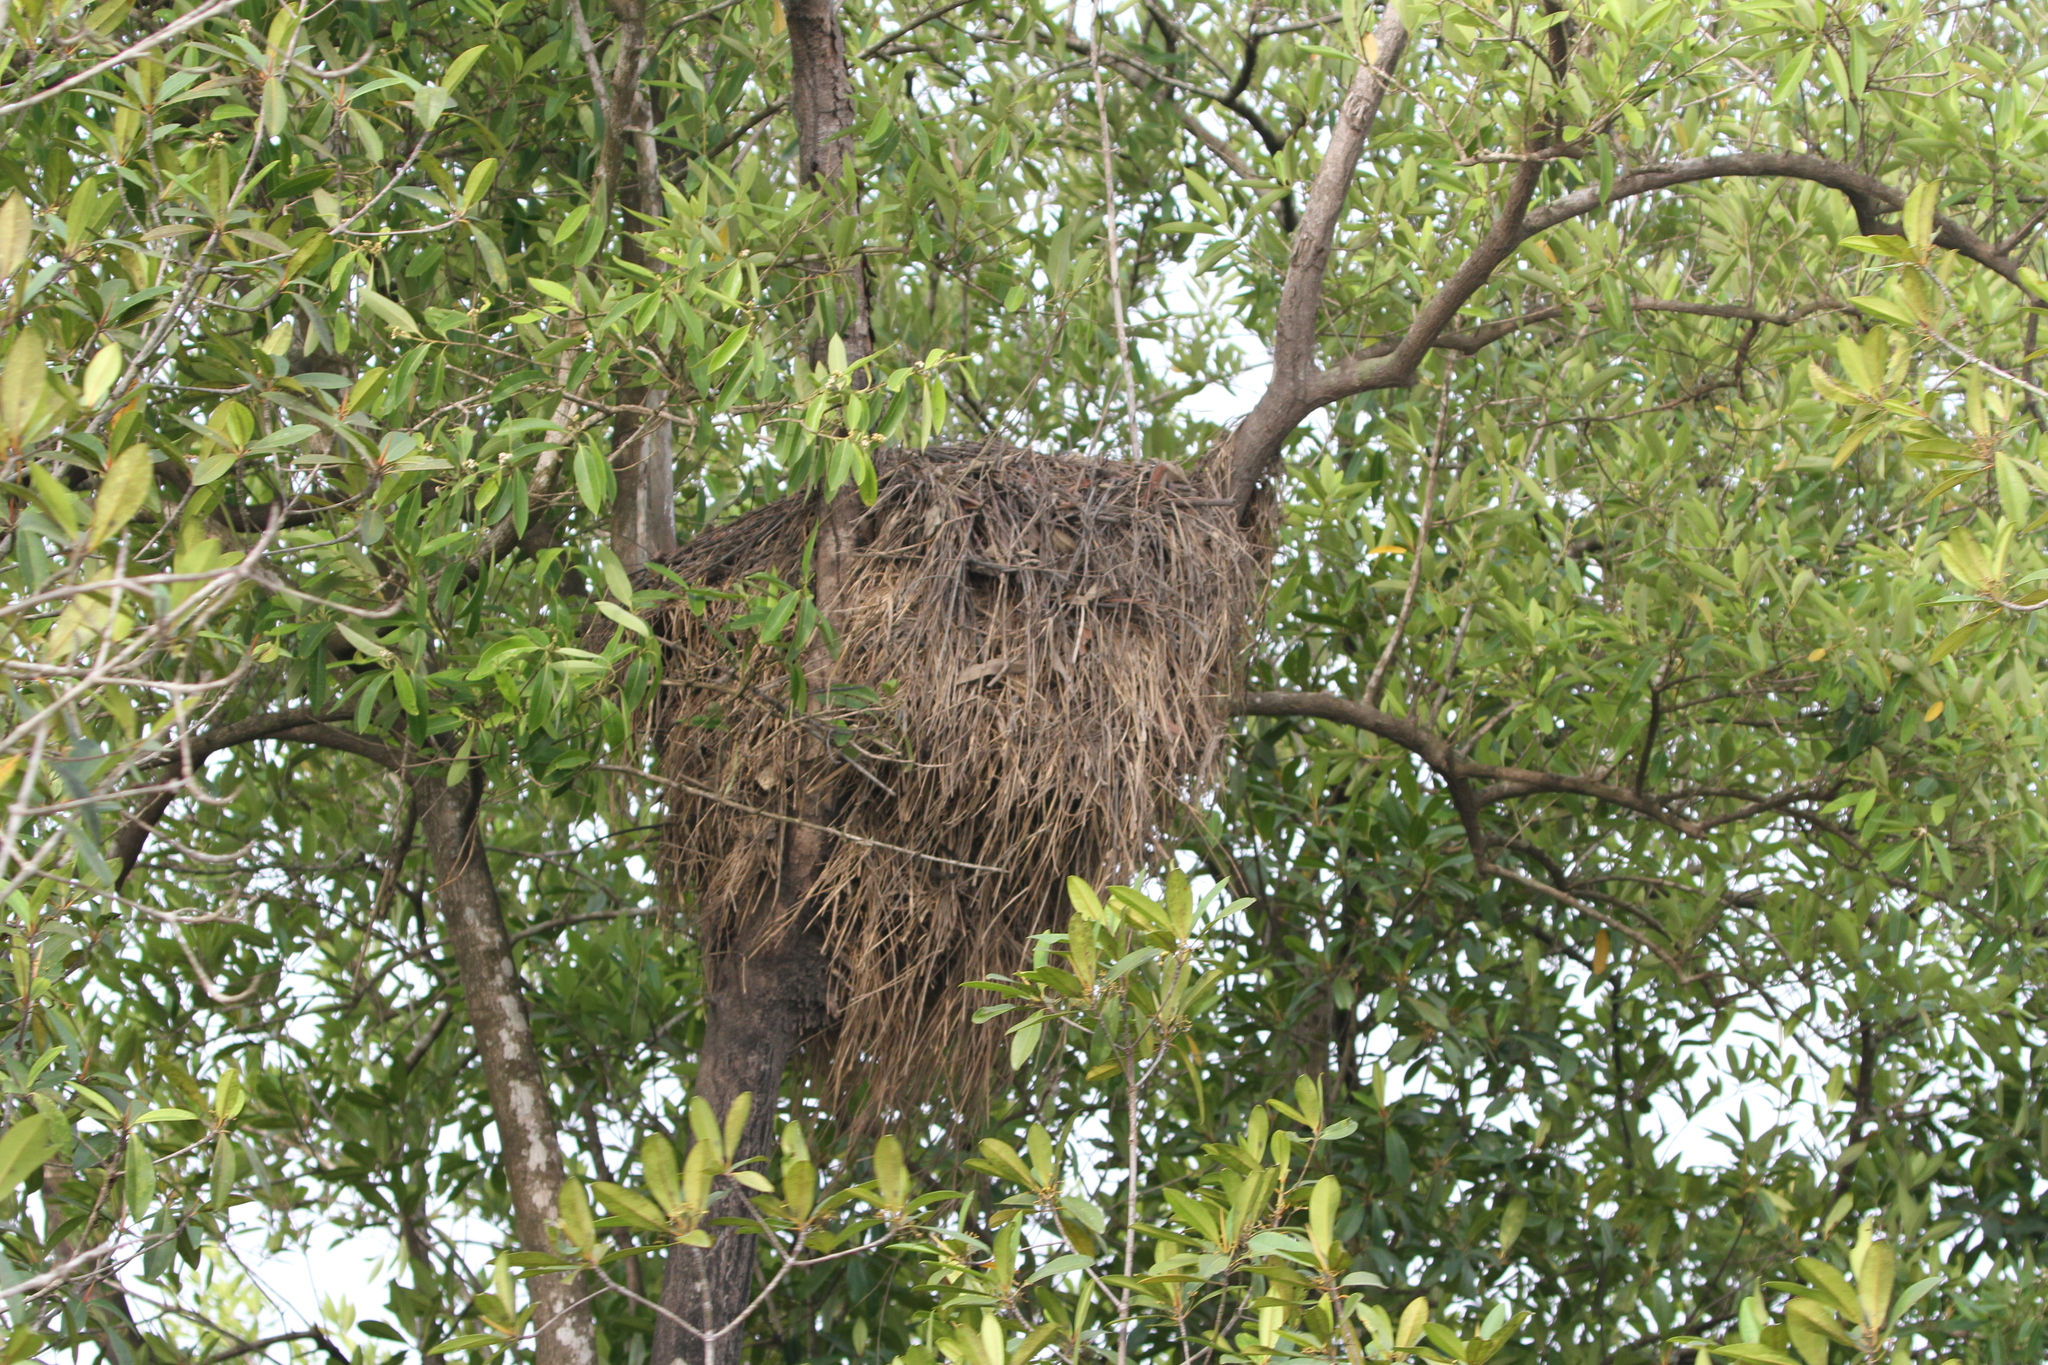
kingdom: Animalia
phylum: Chordata
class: Aves
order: Pelecaniformes
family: Scopidae
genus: Scopus
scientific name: Scopus umbretta
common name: Hamerkop
